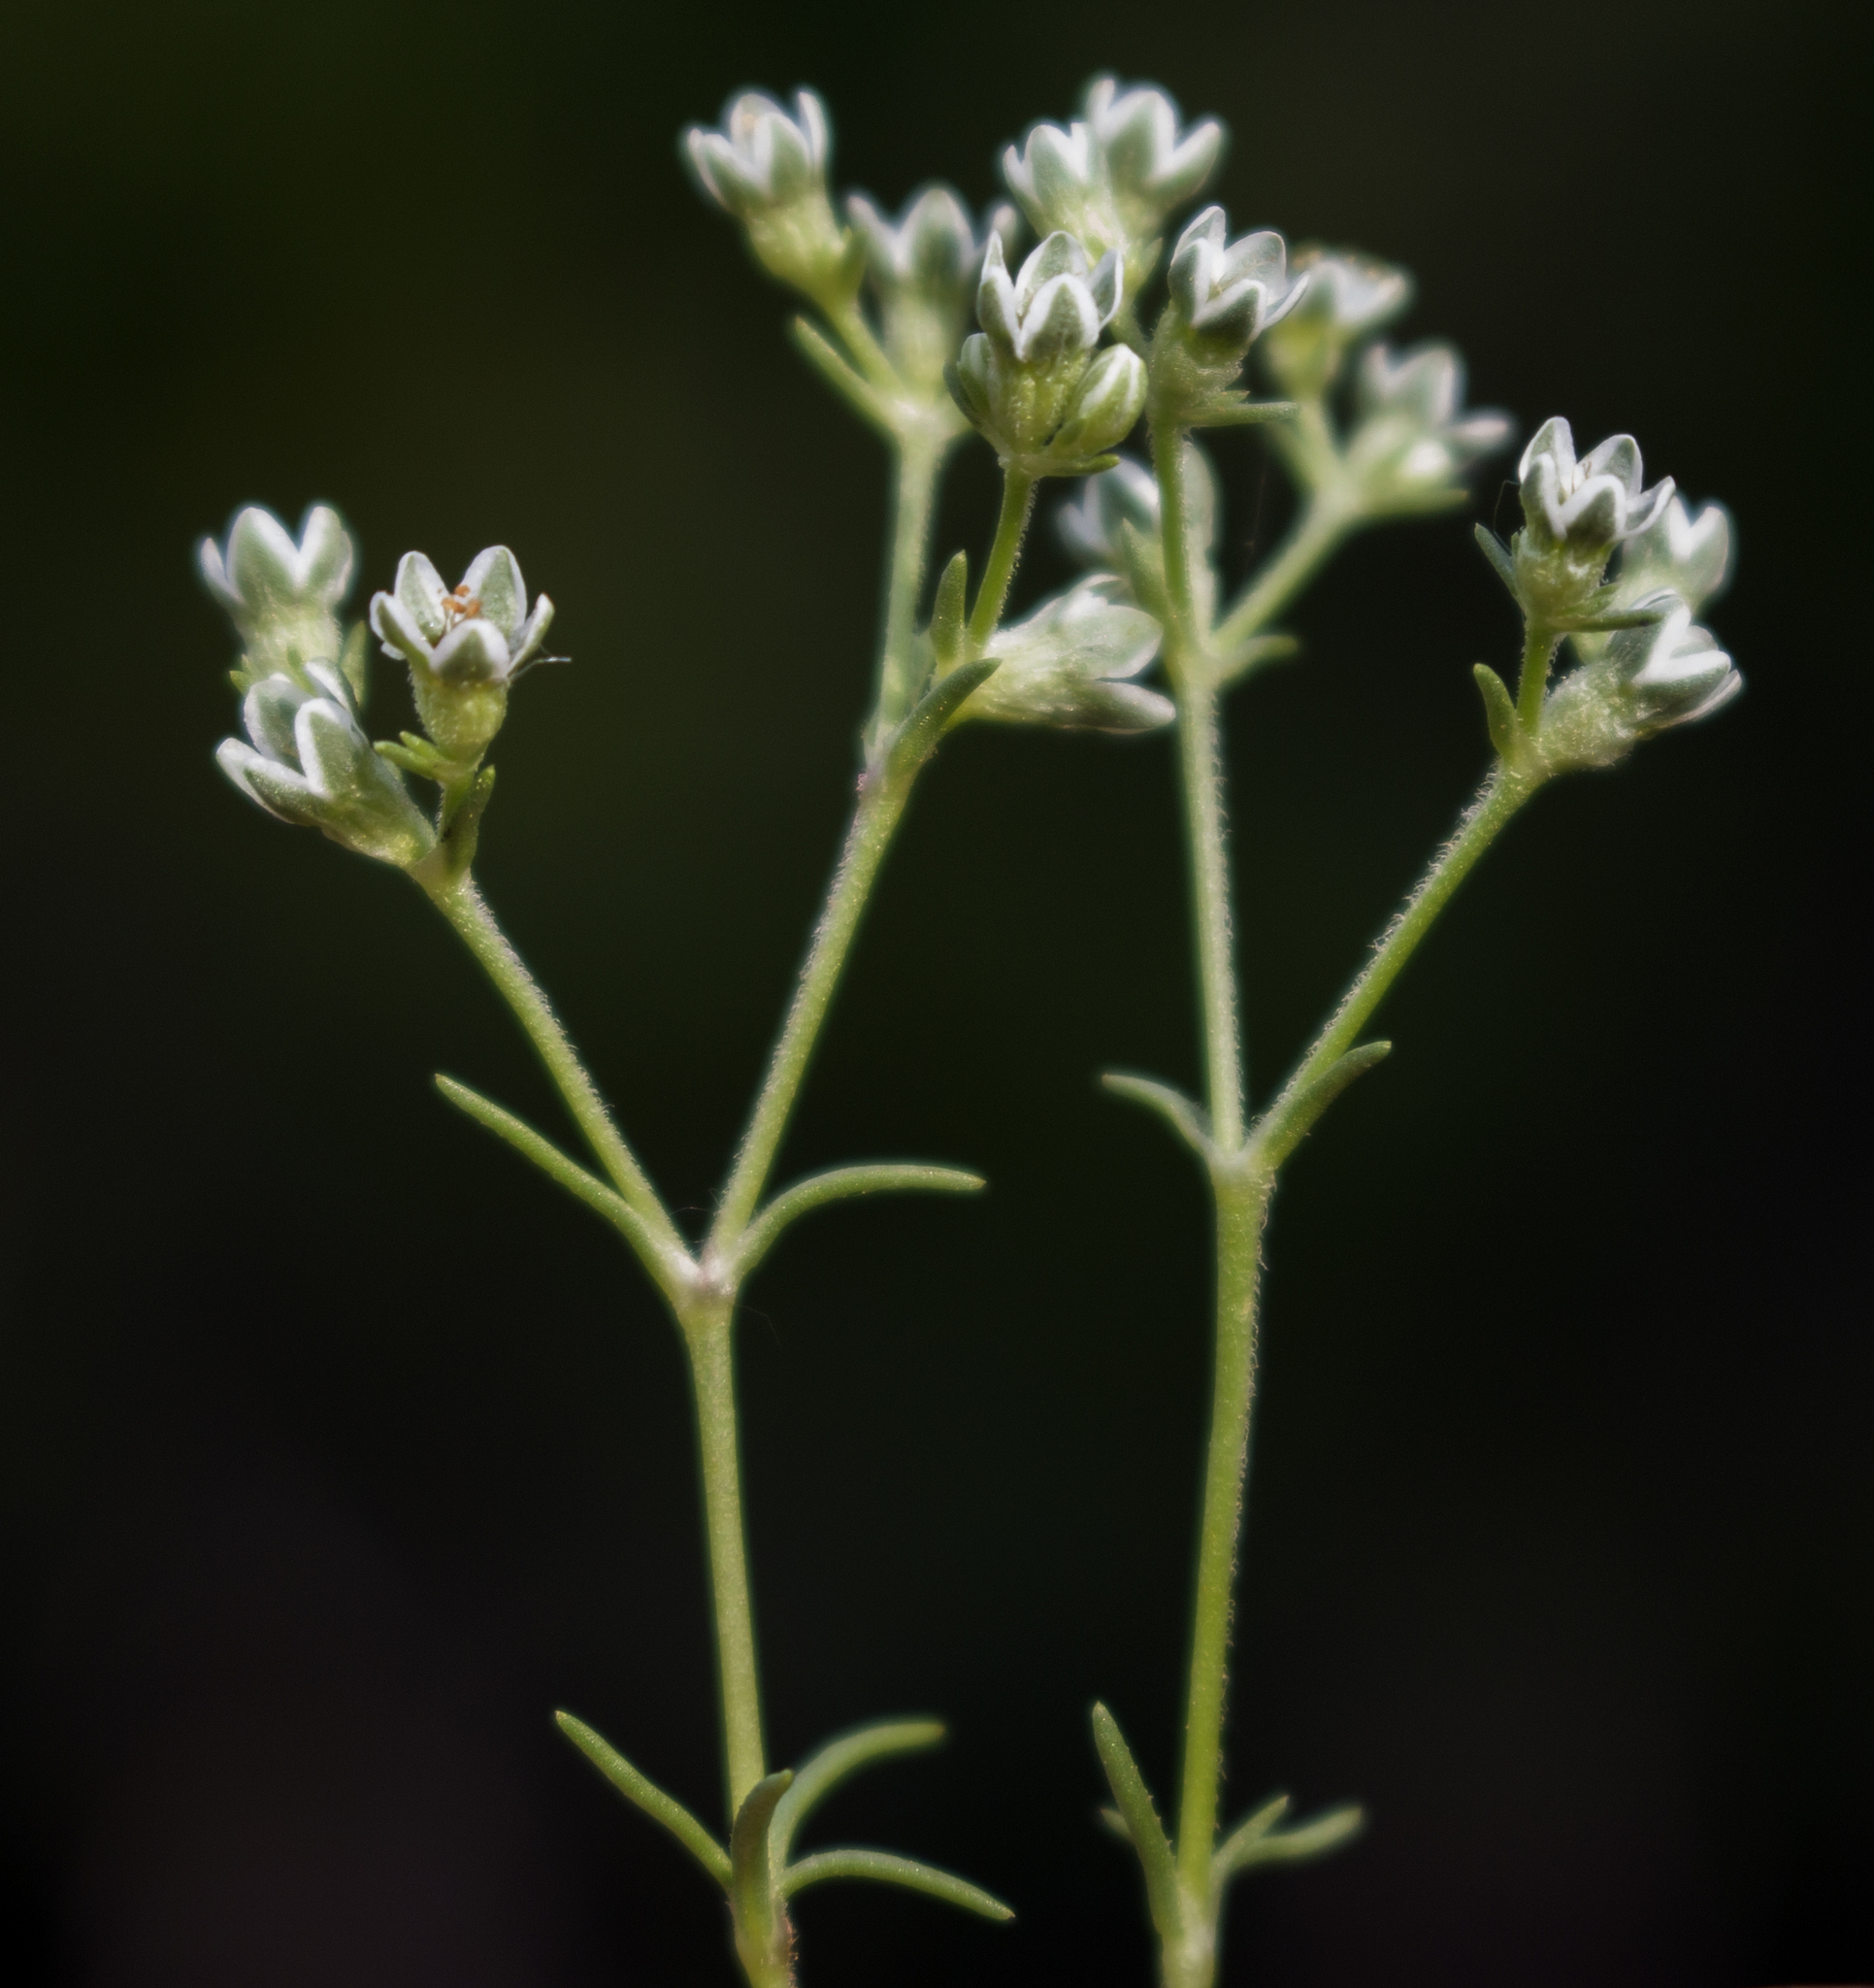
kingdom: Plantae
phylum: Tracheophyta
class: Magnoliopsida
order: Caryophyllales
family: Caryophyllaceae
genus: Scleranthus
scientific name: Scleranthus perennis
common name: Perennial knawel
